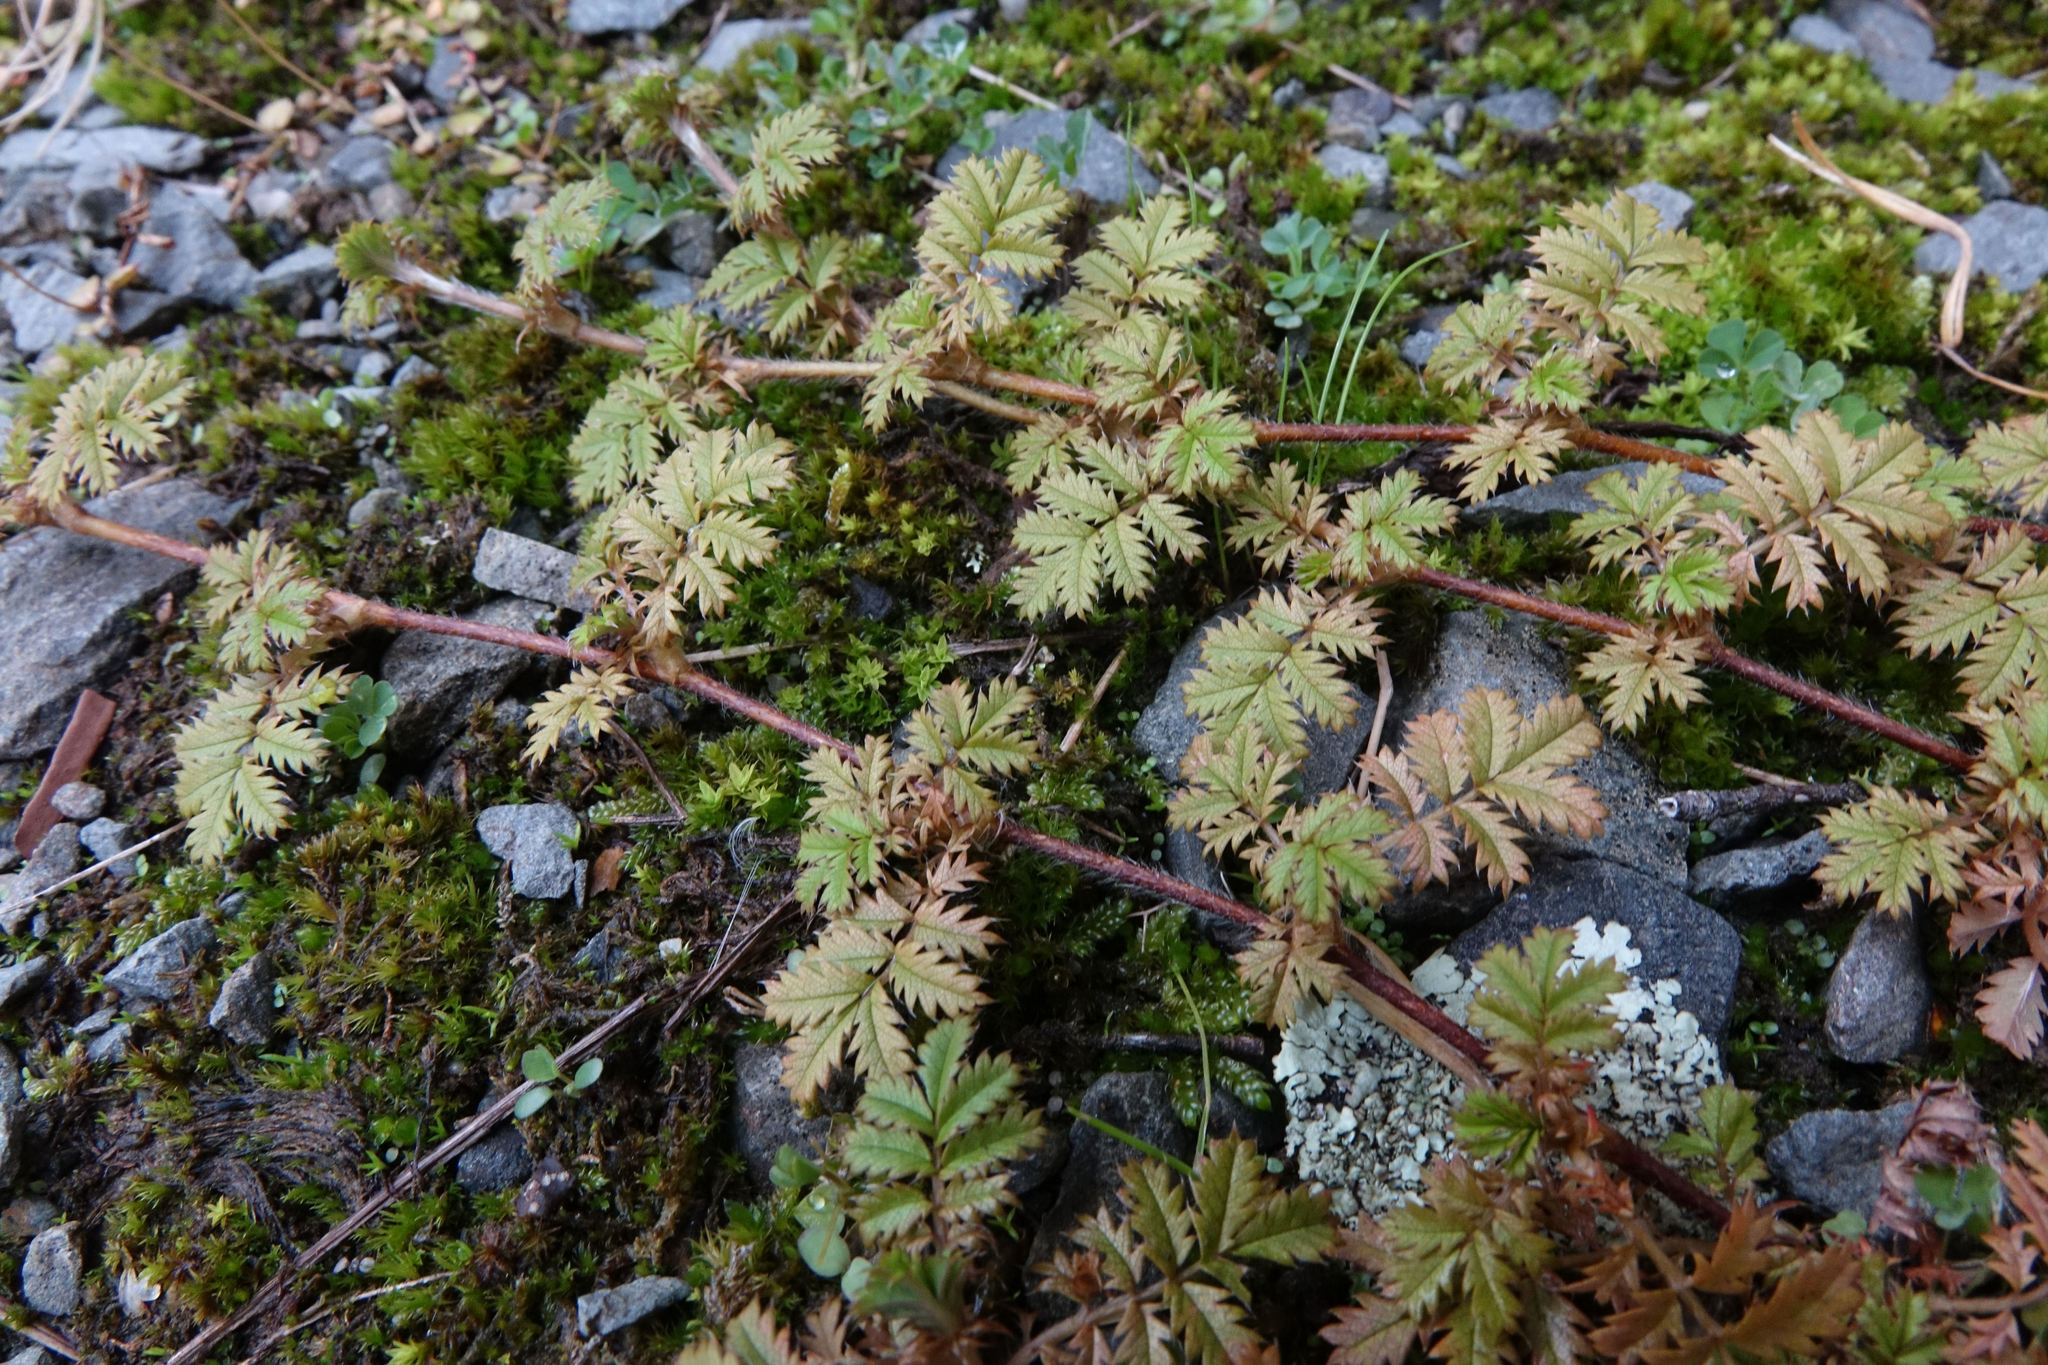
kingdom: Plantae
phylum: Tracheophyta
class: Magnoliopsida
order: Rosales
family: Rosaceae
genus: Acaena
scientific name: Acaena anserinifolia
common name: Bronze pirri-pirri-bur
